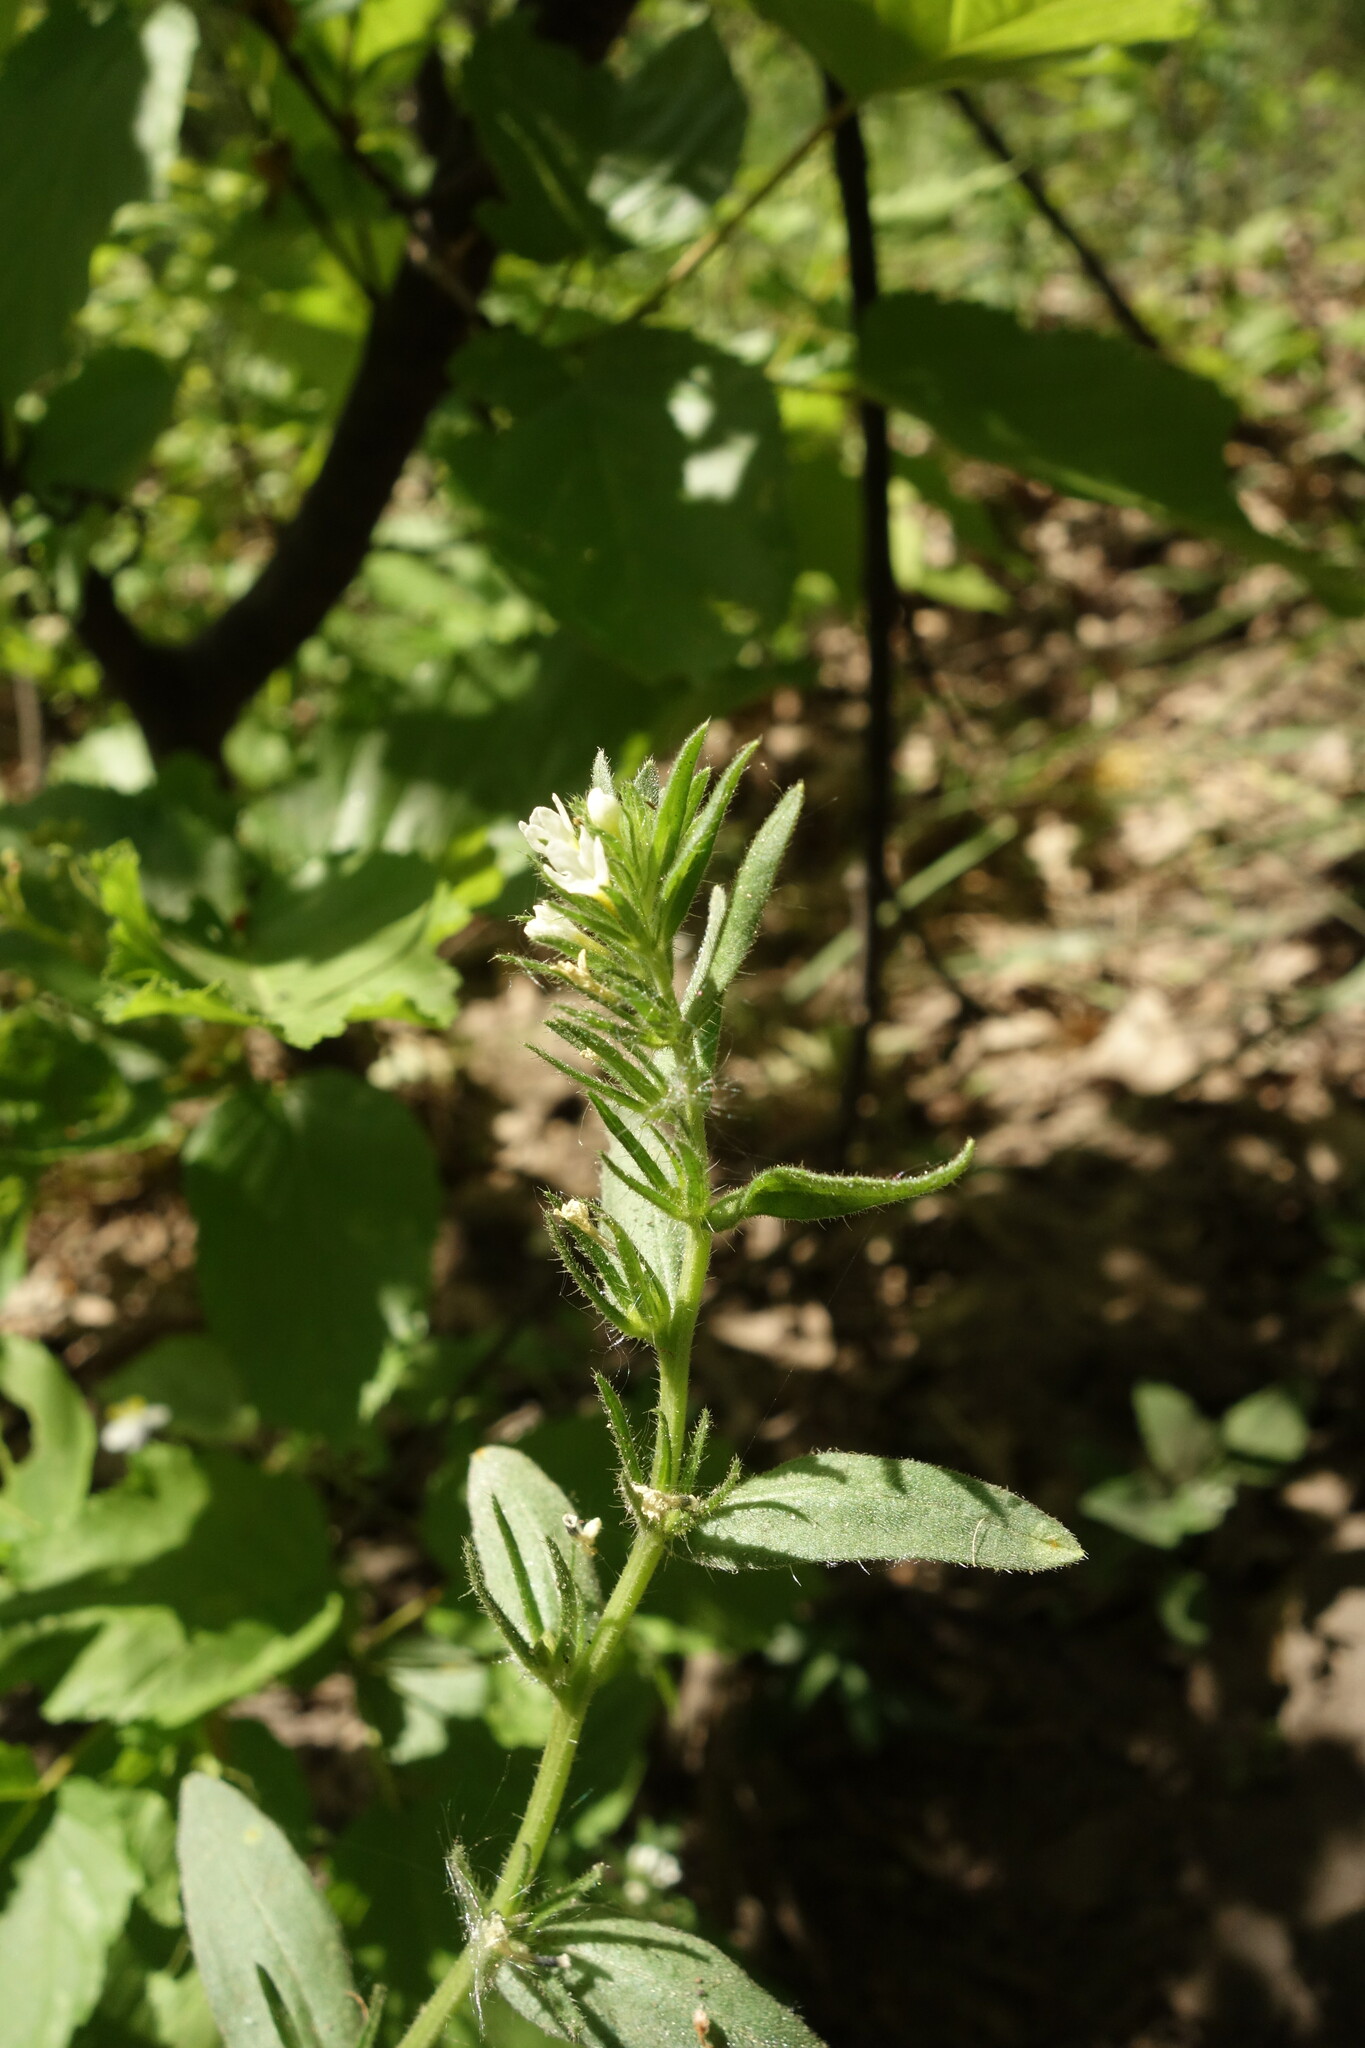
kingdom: Plantae
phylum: Tracheophyta
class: Magnoliopsida
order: Boraginales
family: Boraginaceae
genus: Buglossoides
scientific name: Buglossoides arvensis
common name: Corn gromwell
